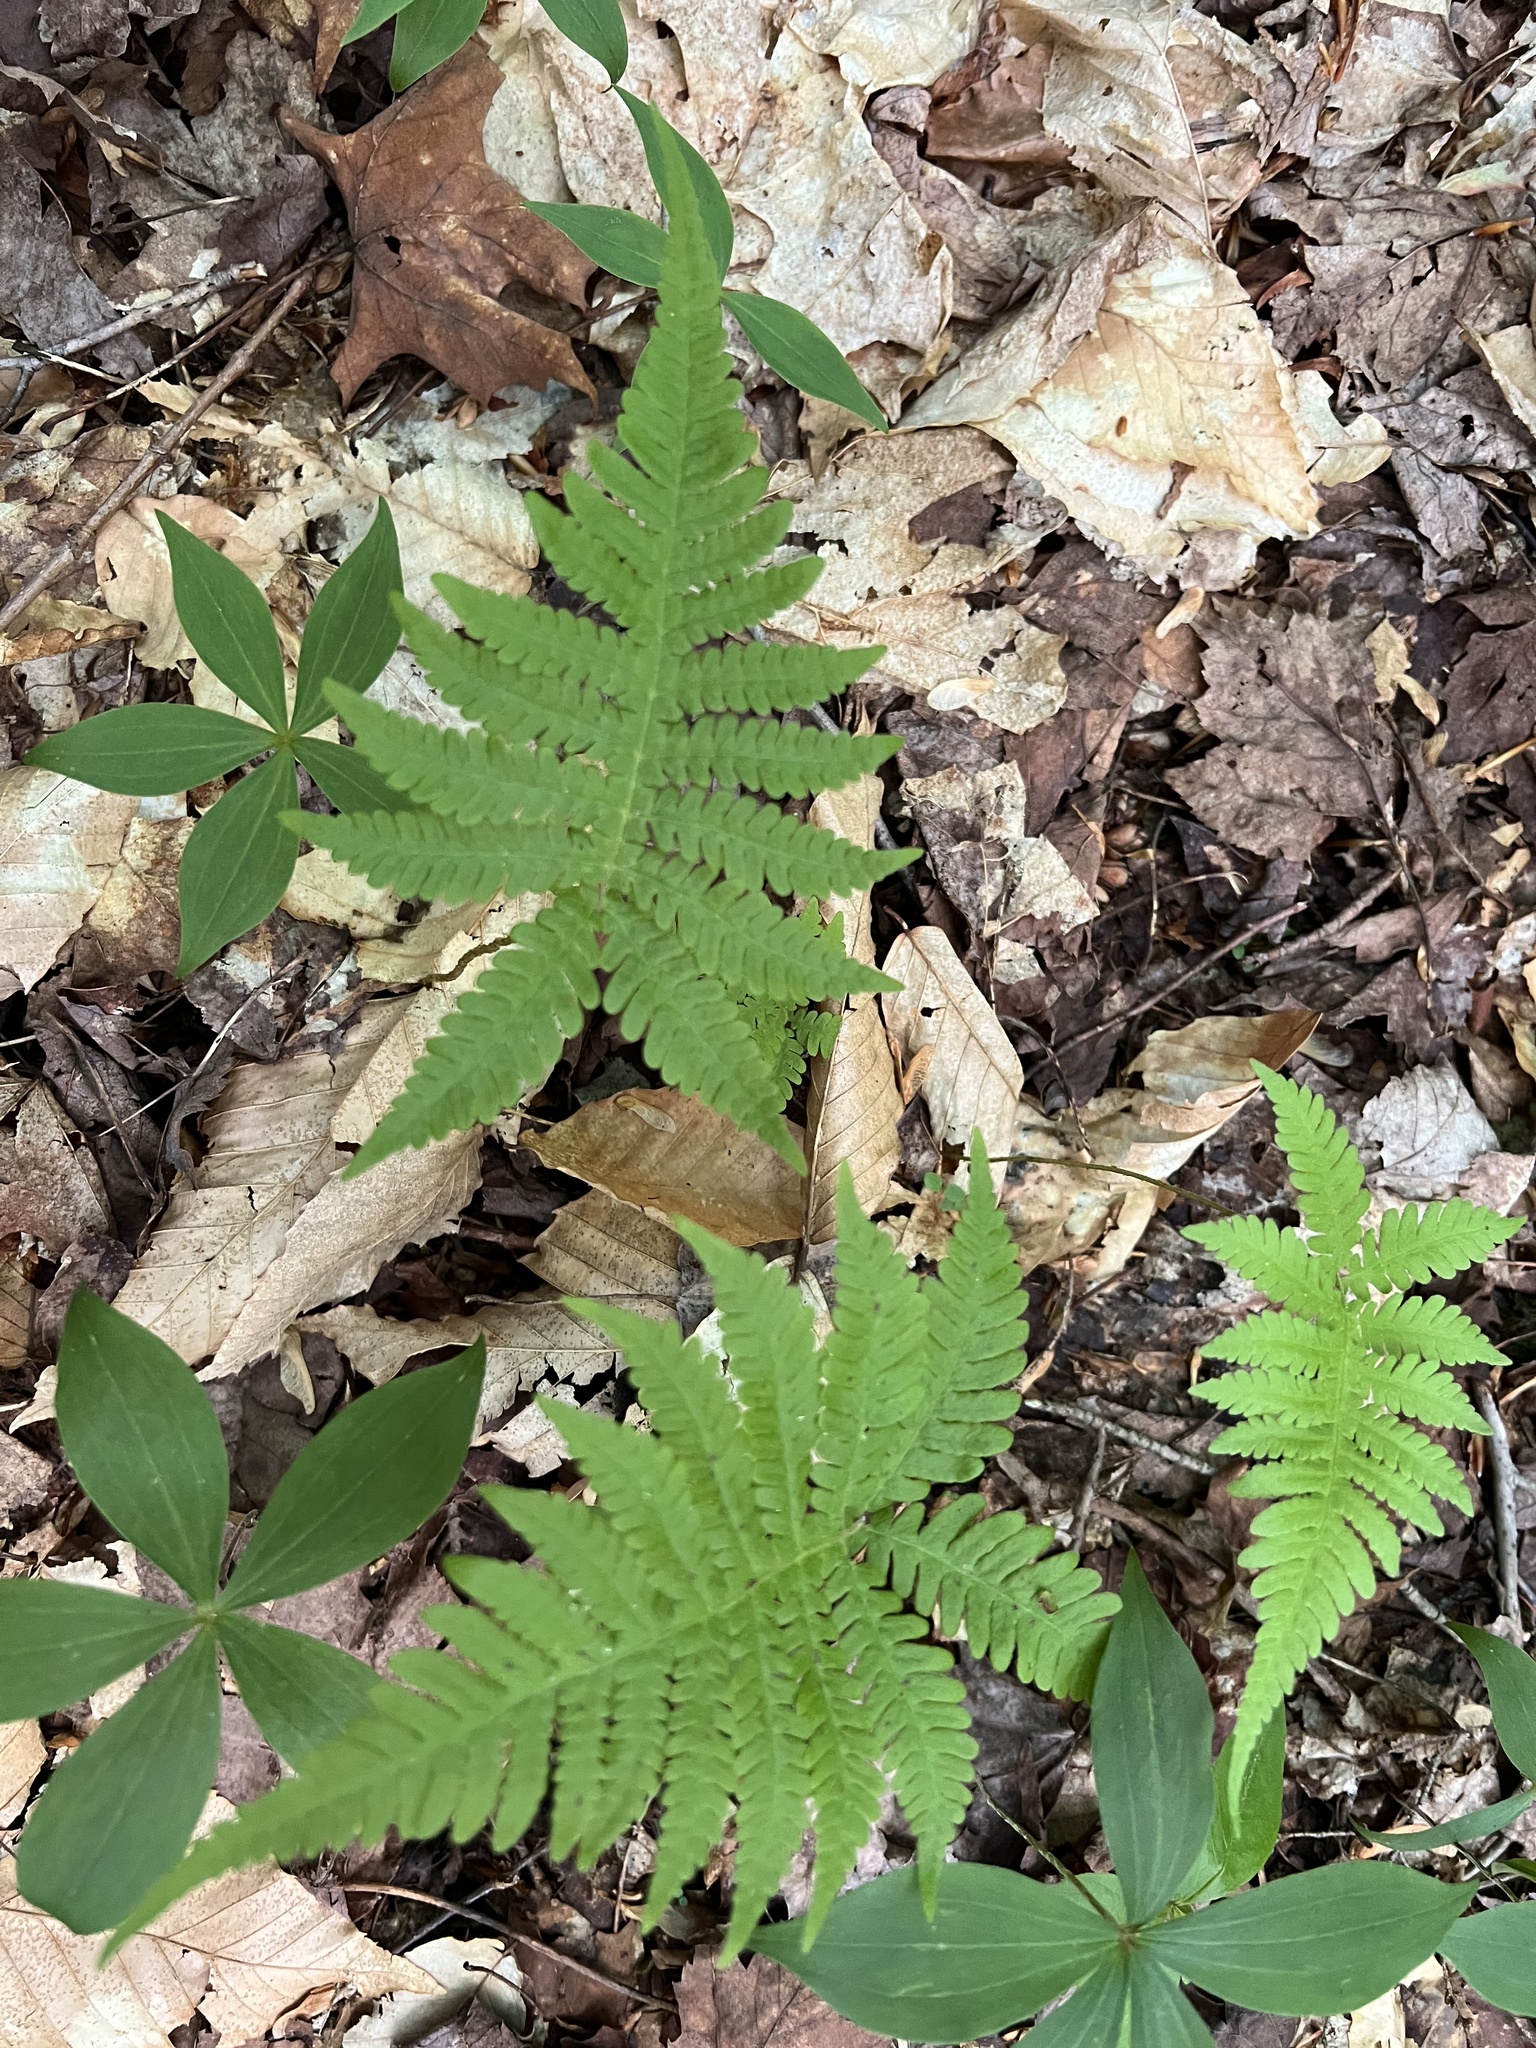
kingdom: Plantae
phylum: Tracheophyta
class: Polypodiopsida
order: Polypodiales
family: Thelypteridaceae
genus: Phegopteris
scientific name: Phegopteris connectilis
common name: Beech fern
